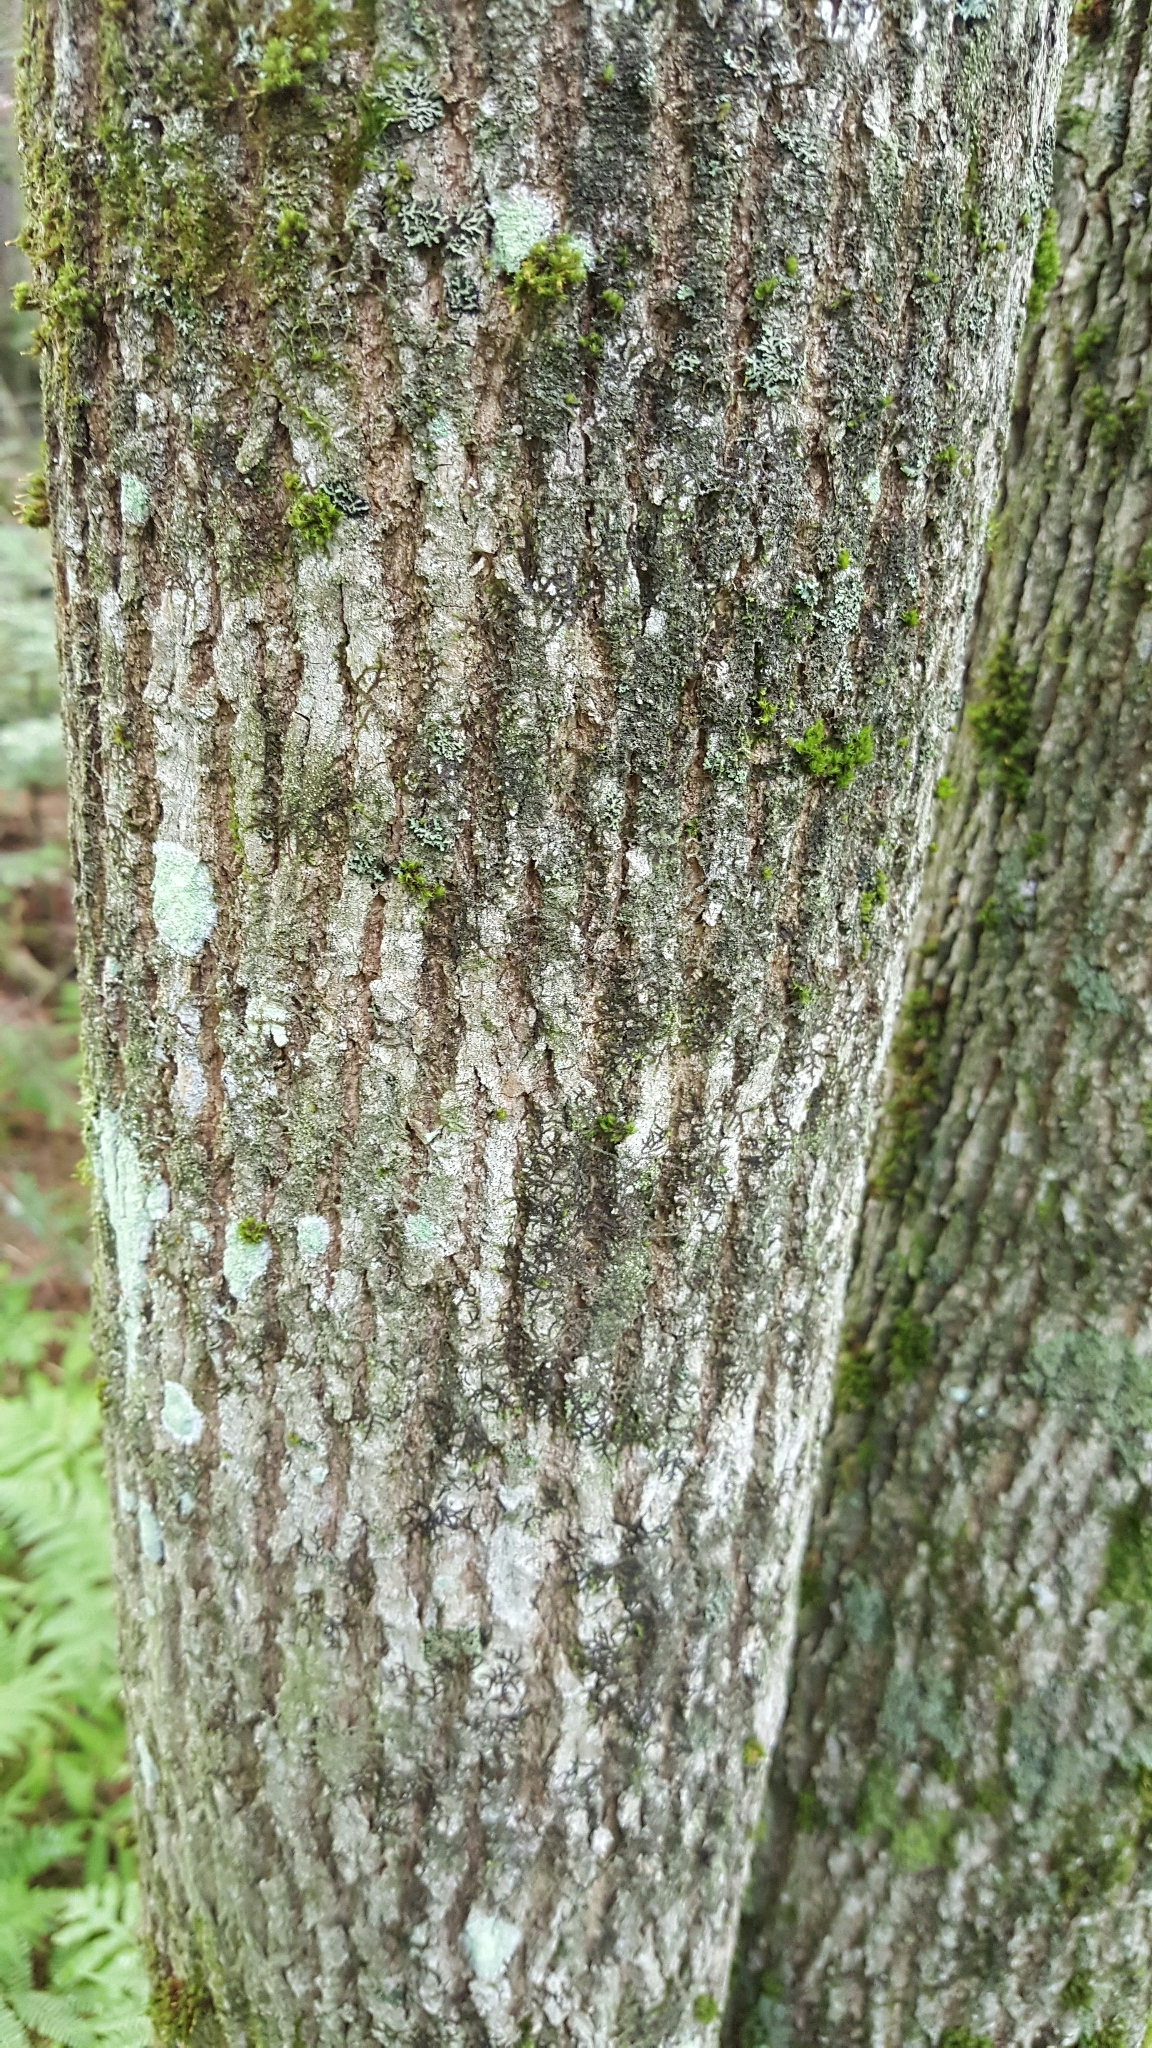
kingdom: Plantae
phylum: Tracheophyta
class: Magnoliopsida
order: Lamiales
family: Oleaceae
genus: Fraxinus
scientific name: Fraxinus americana
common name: White ash
